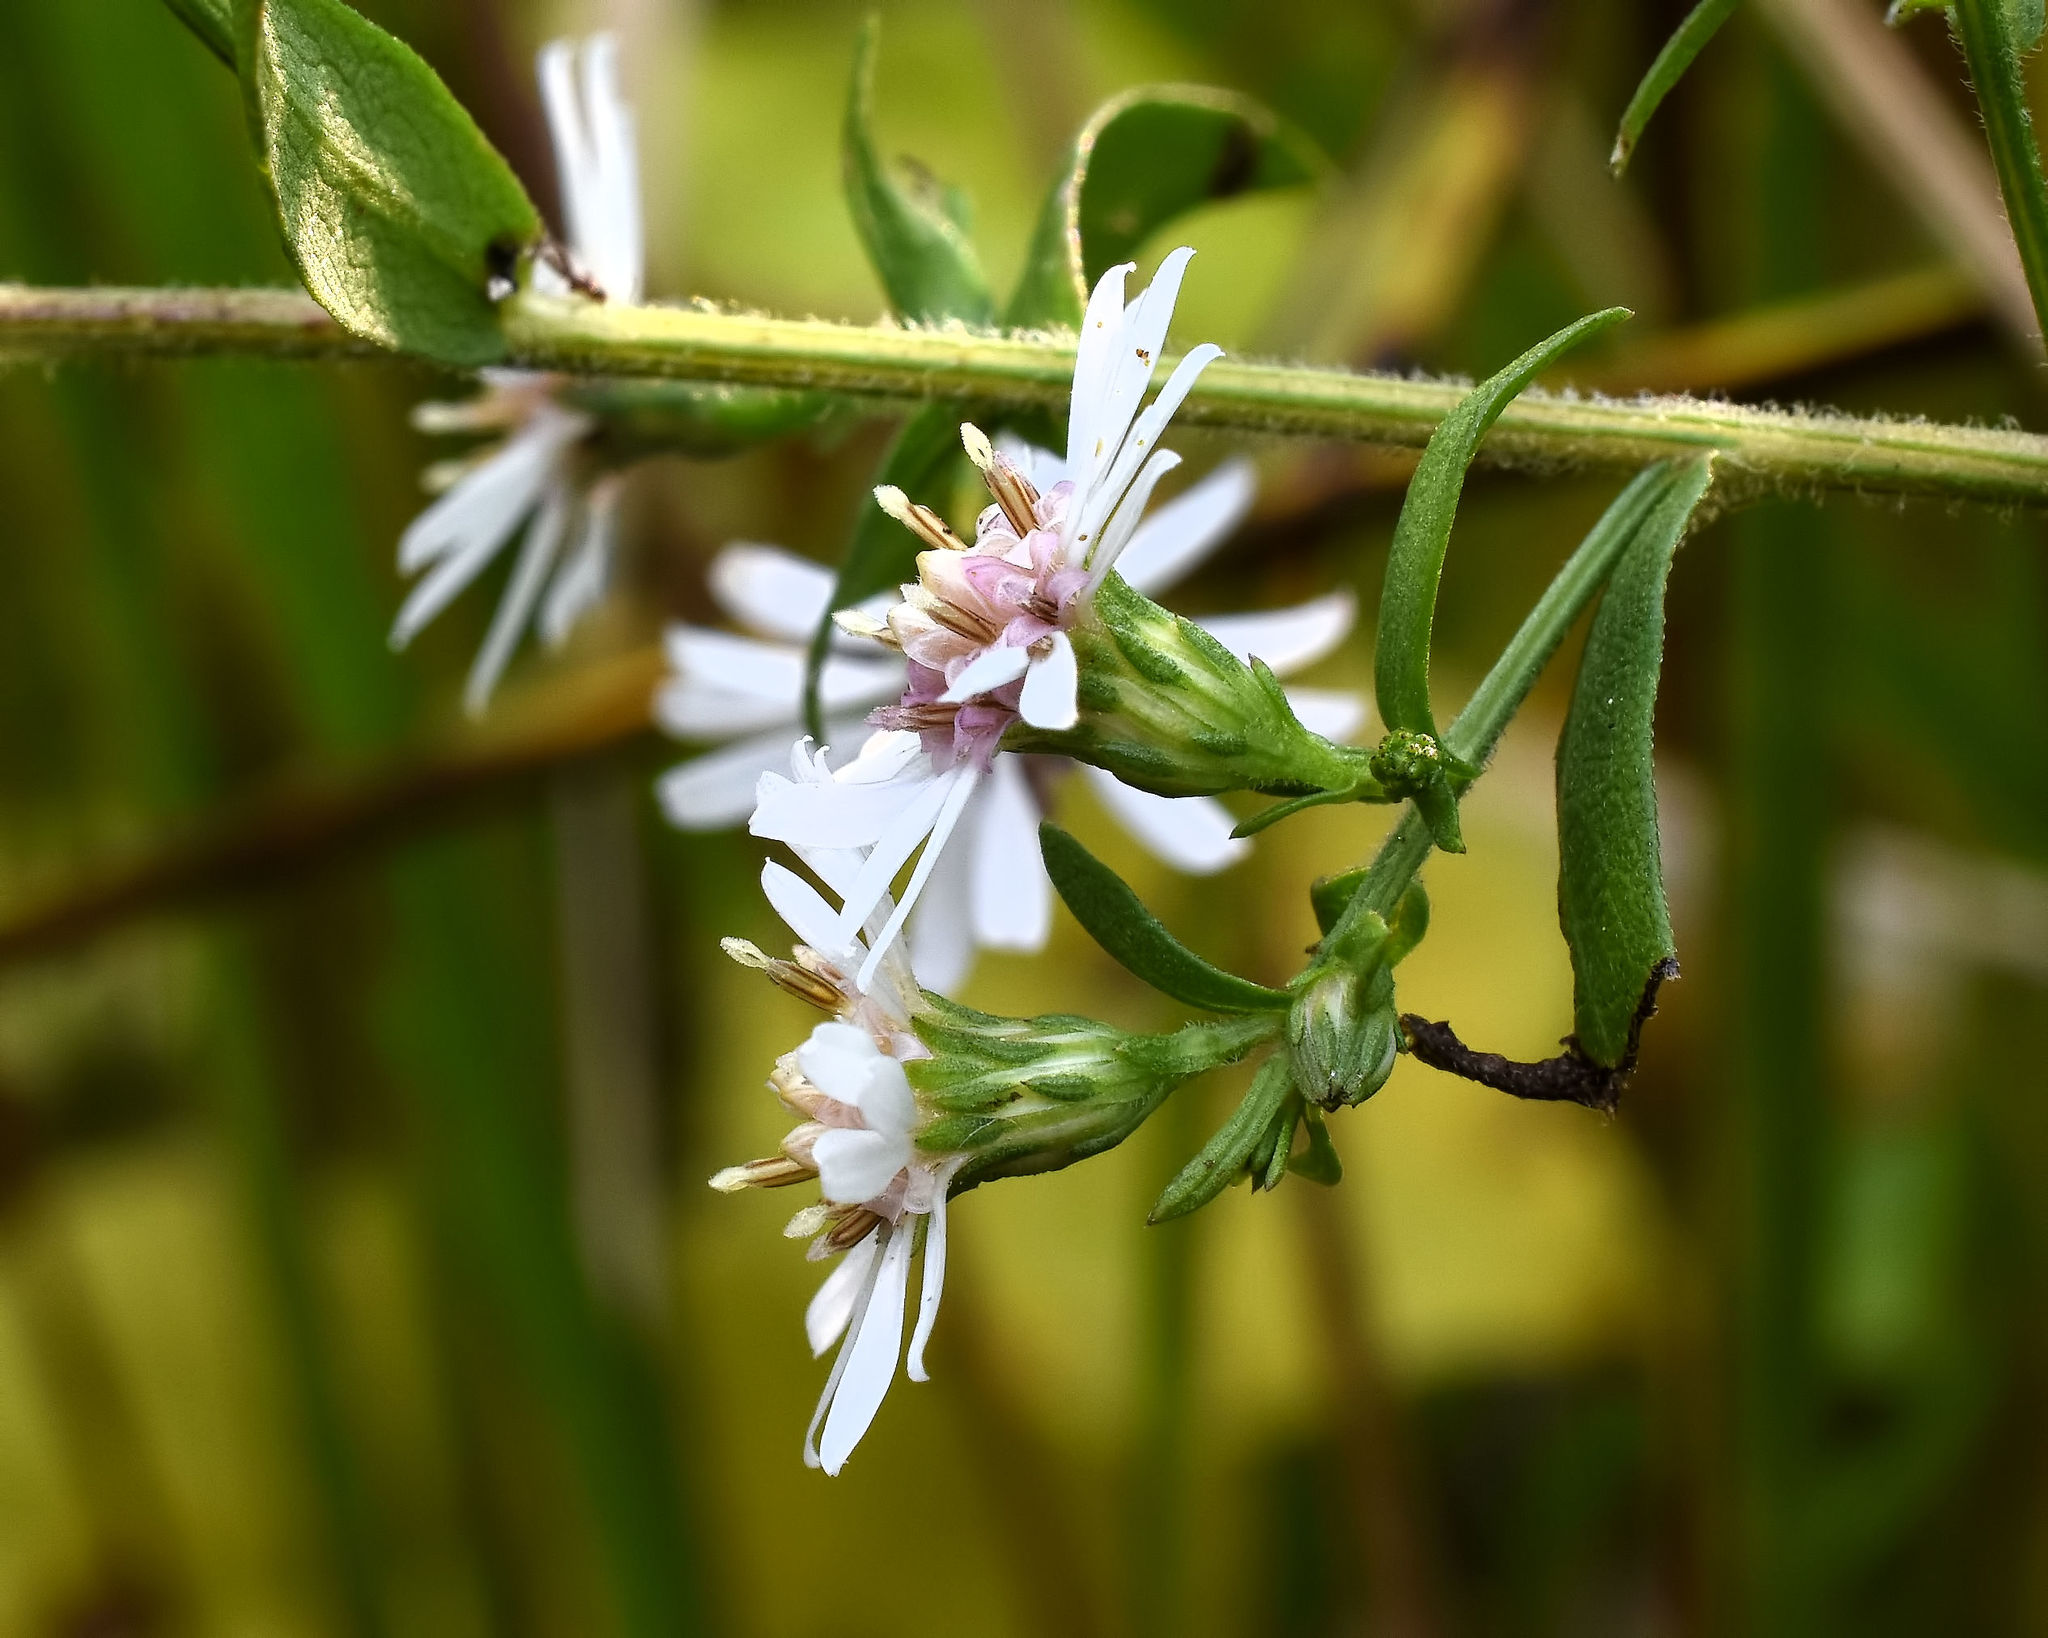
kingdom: Plantae
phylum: Tracheophyta
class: Magnoliopsida
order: Asterales
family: Asteraceae
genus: Symphyotrichum
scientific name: Symphyotrichum lateriflorum
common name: Calico aster
